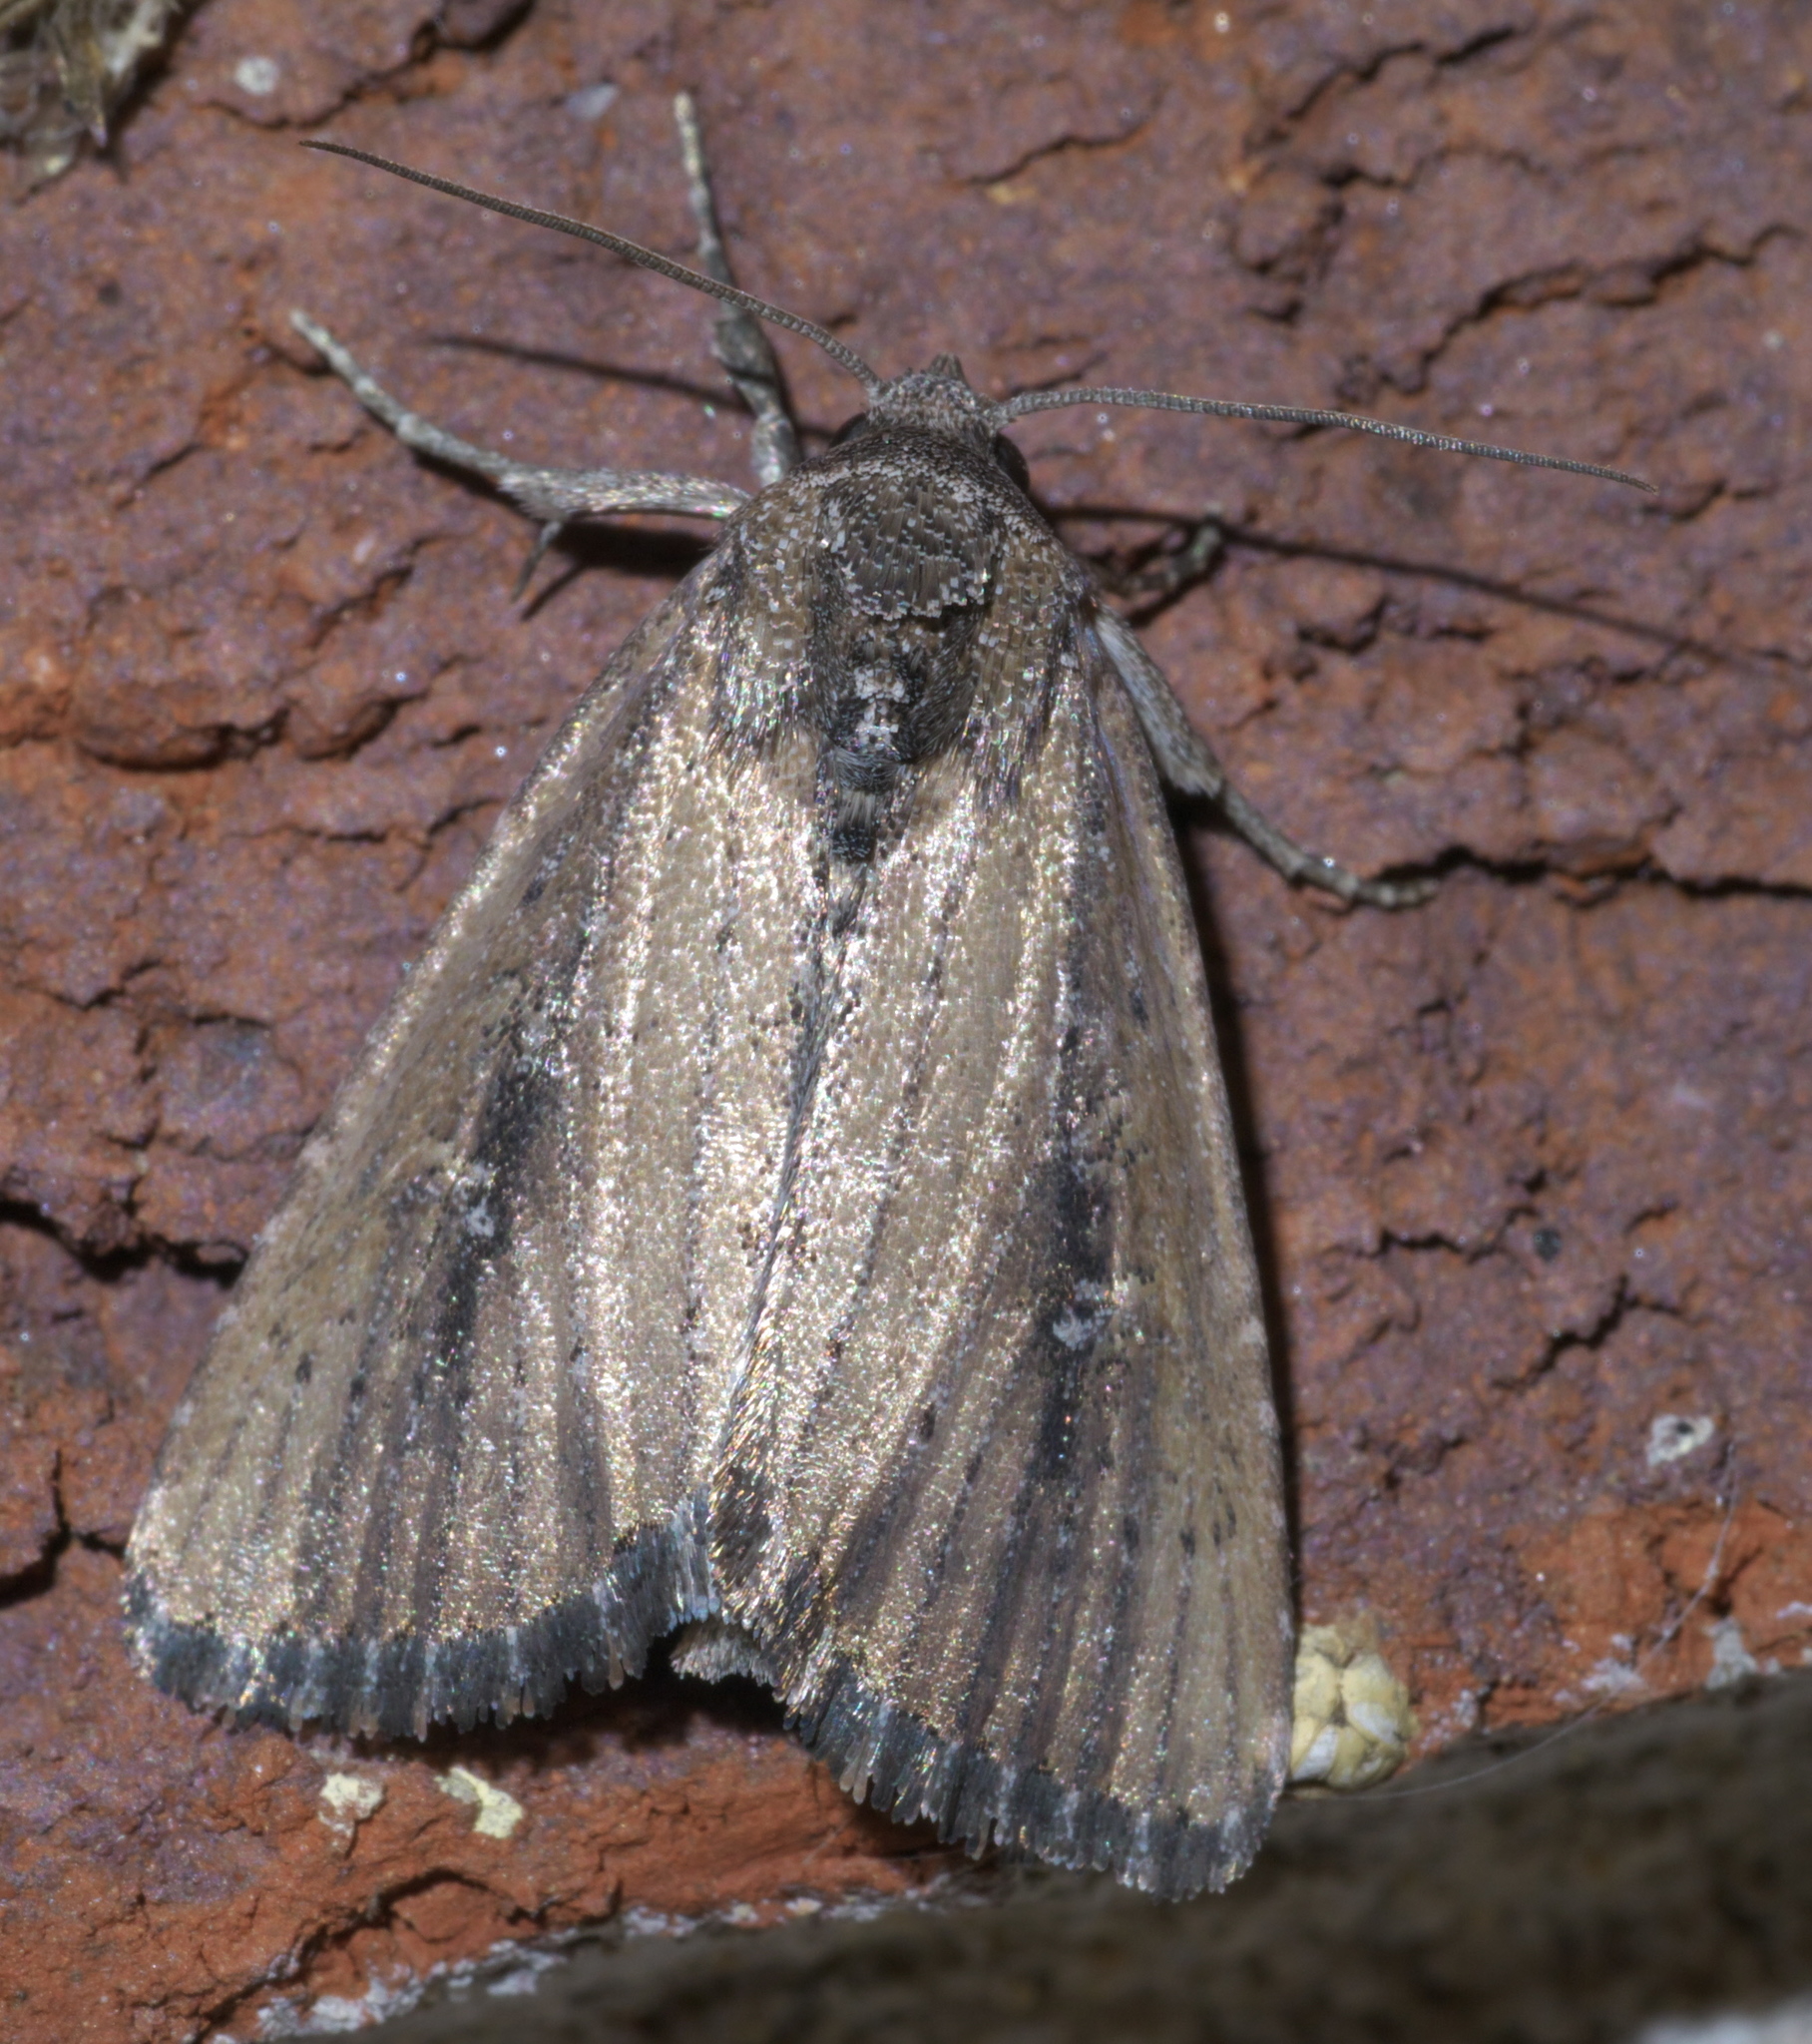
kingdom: Animalia
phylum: Arthropoda
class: Insecta
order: Lepidoptera
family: Noctuidae
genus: Condica
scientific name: Condica videns
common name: White-dotted groundling
